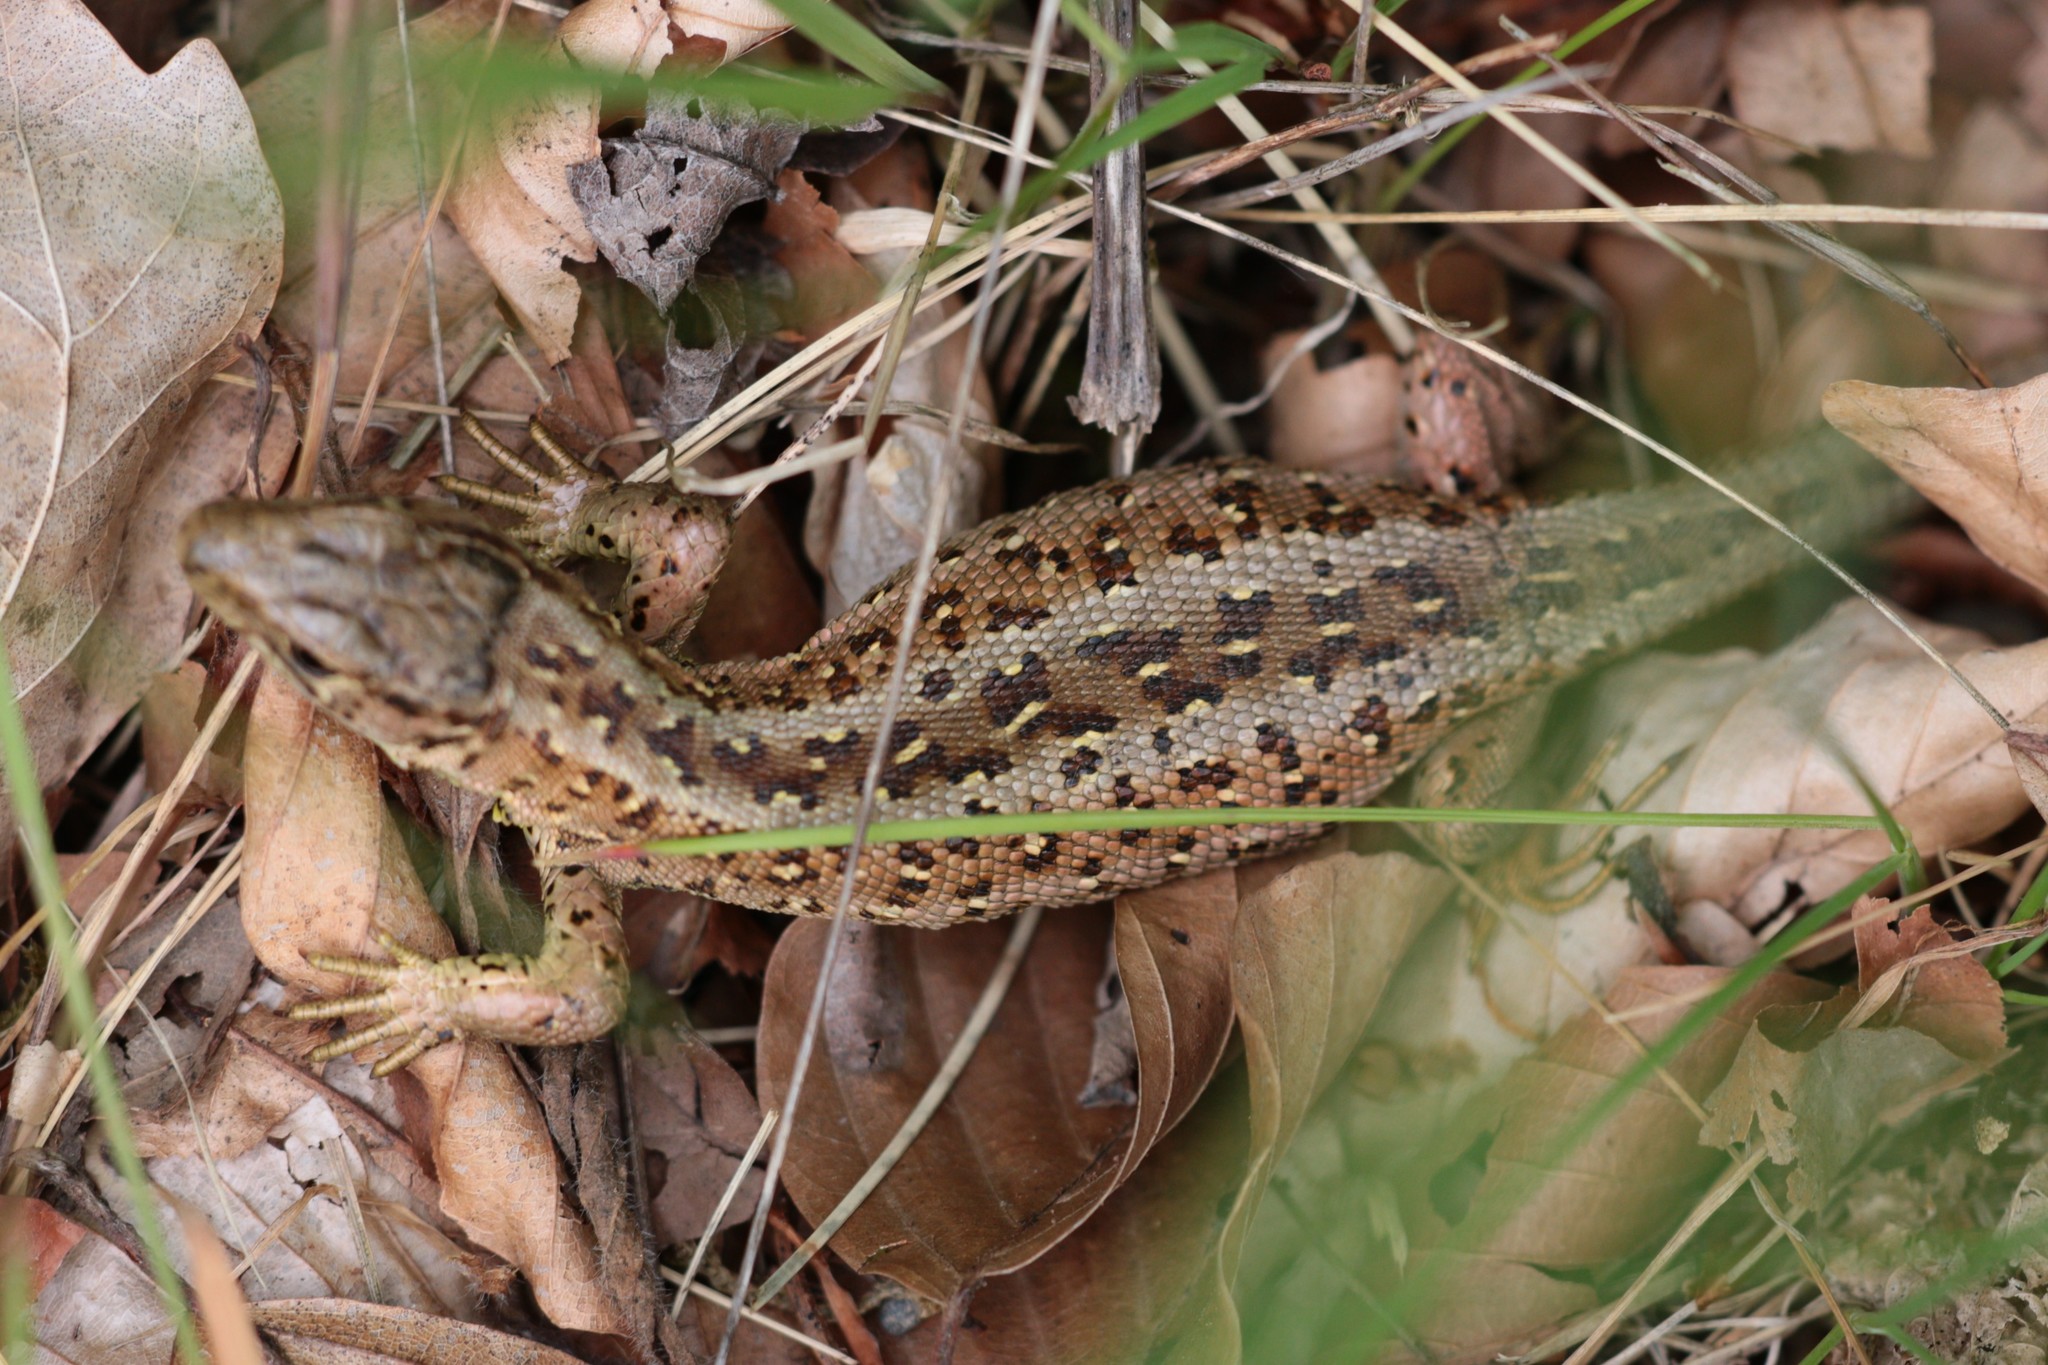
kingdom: Animalia
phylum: Chordata
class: Squamata
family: Lacertidae
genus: Lacerta
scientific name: Lacerta agilis
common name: Sand lizard
